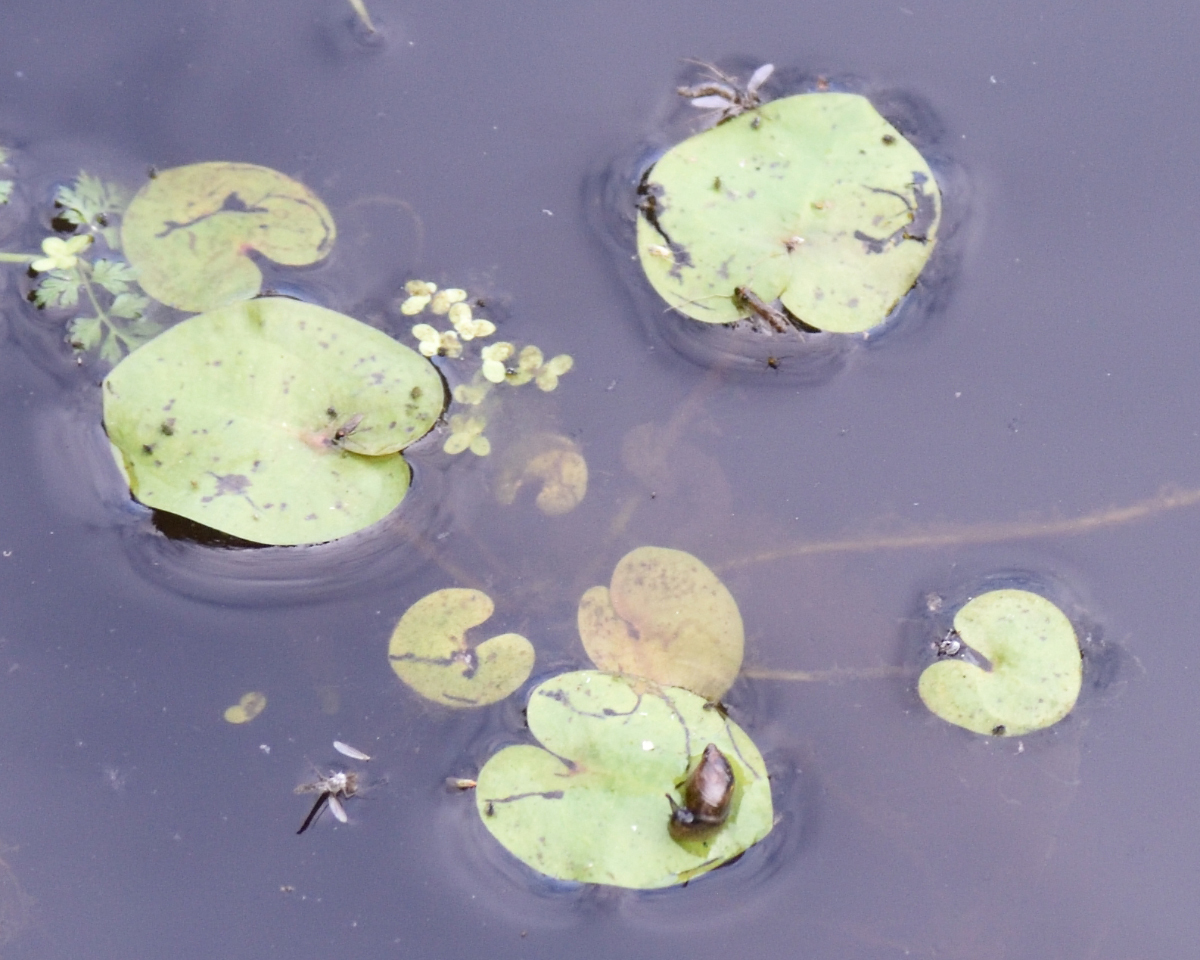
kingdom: Plantae
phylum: Tracheophyta
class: Liliopsida
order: Alismatales
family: Hydrocharitaceae
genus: Hydrocharis
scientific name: Hydrocharis morsus-ranae
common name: Frogbit
